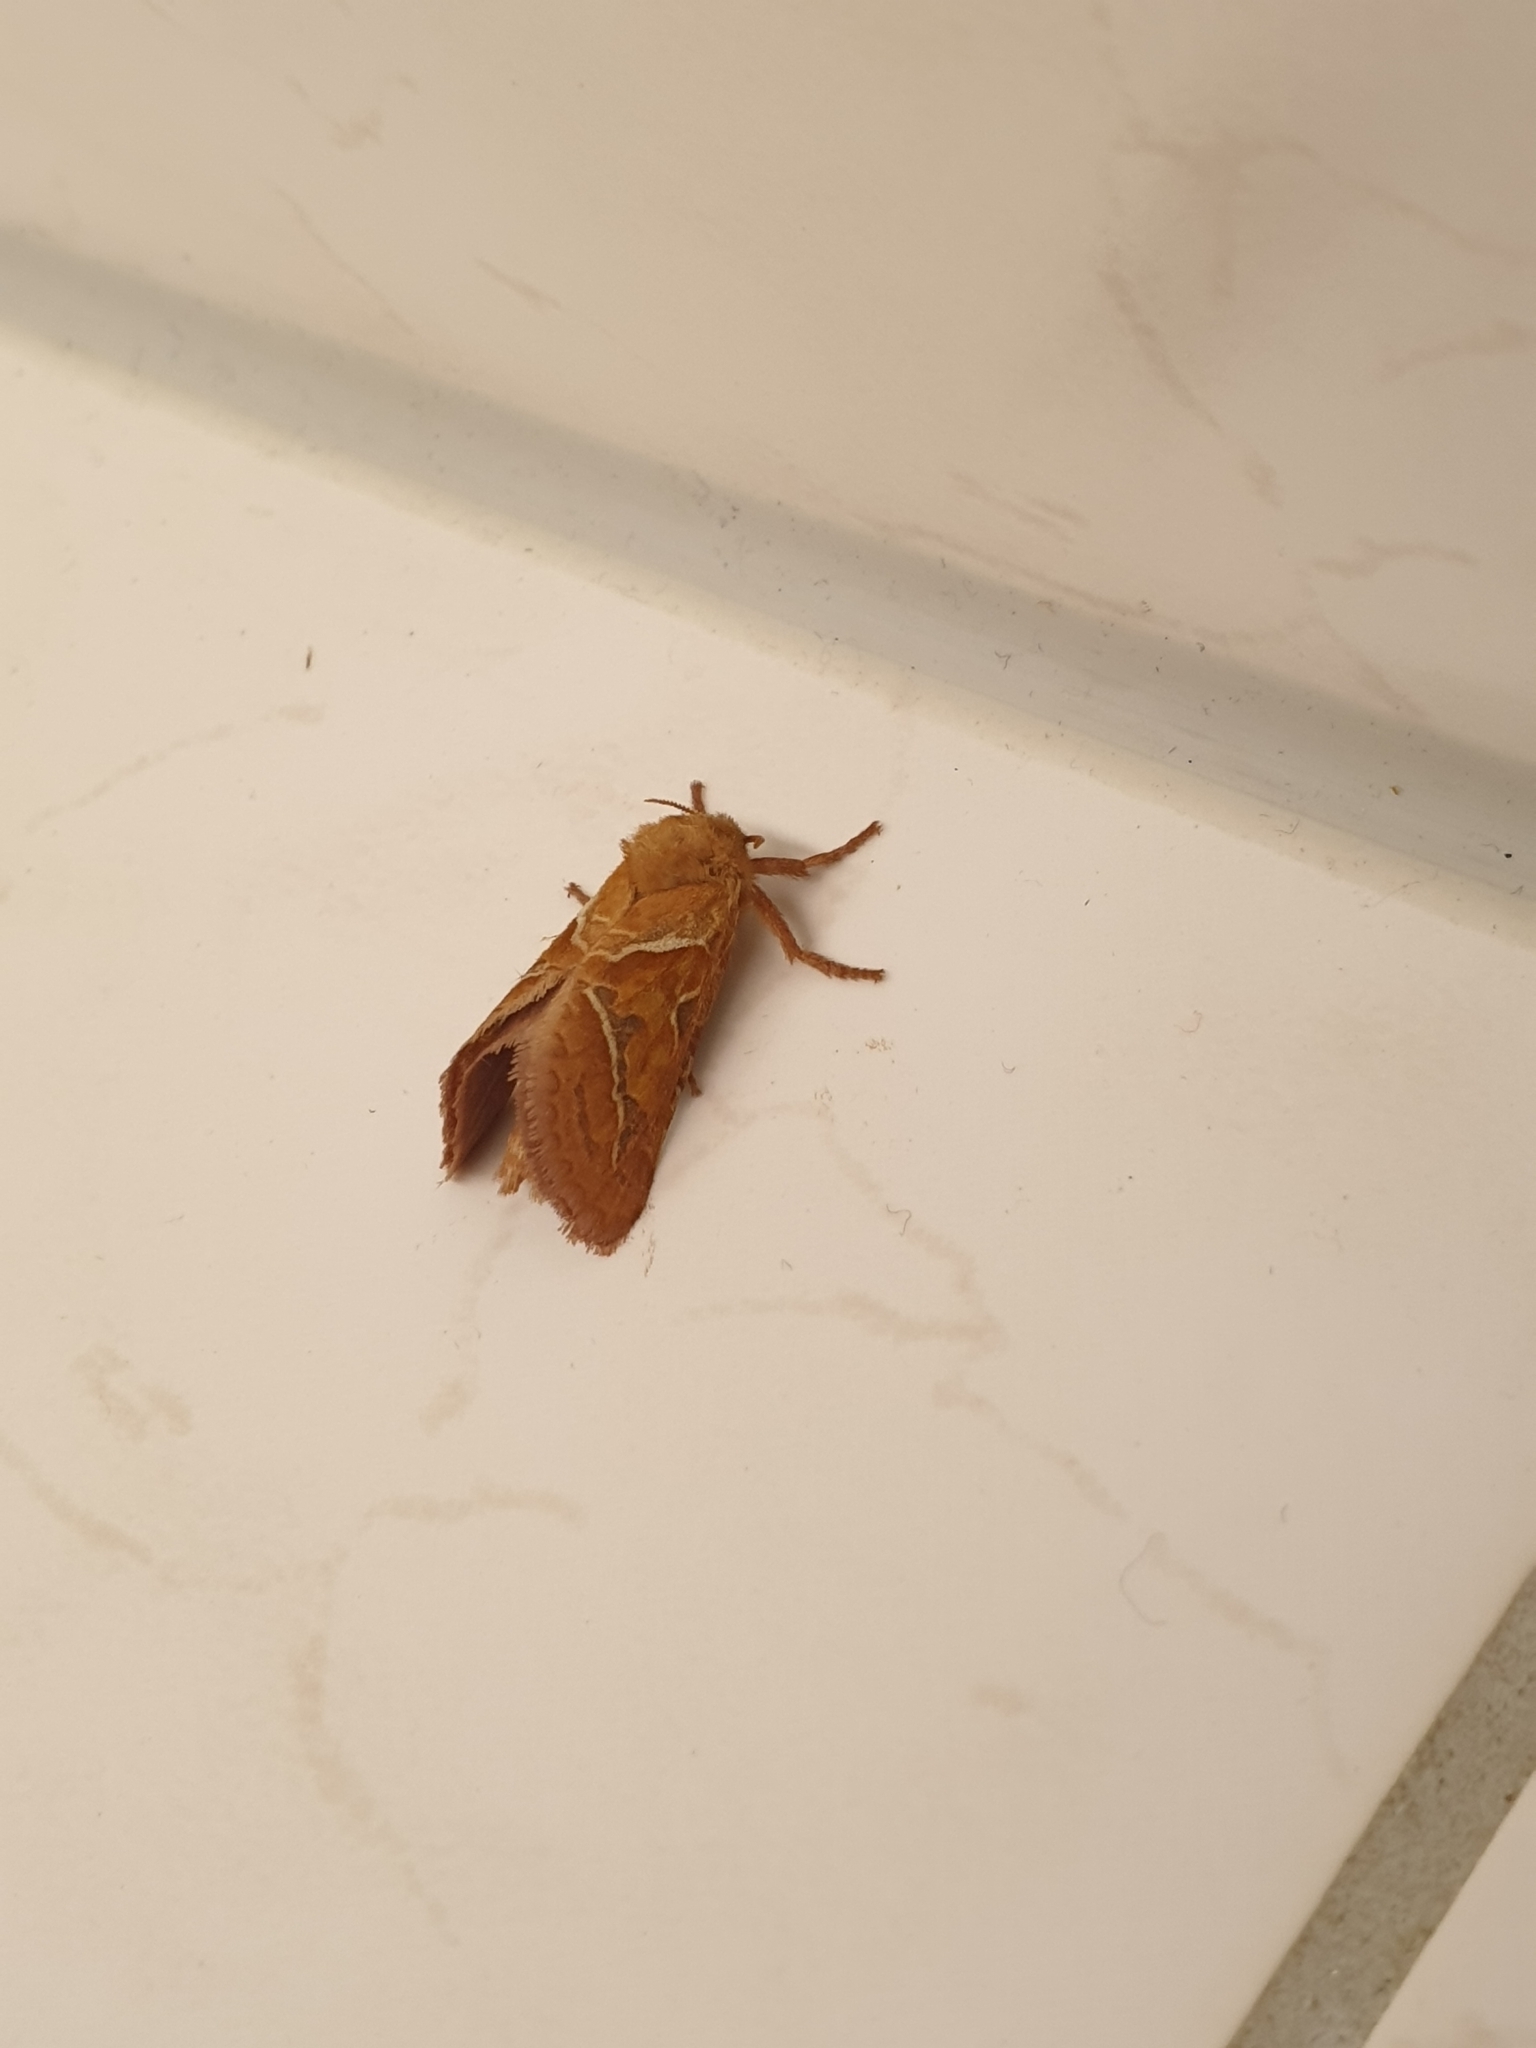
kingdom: Animalia
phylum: Arthropoda
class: Insecta
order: Lepidoptera
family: Hepialidae
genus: Triodia
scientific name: Triodia sylvina
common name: Orange swift
